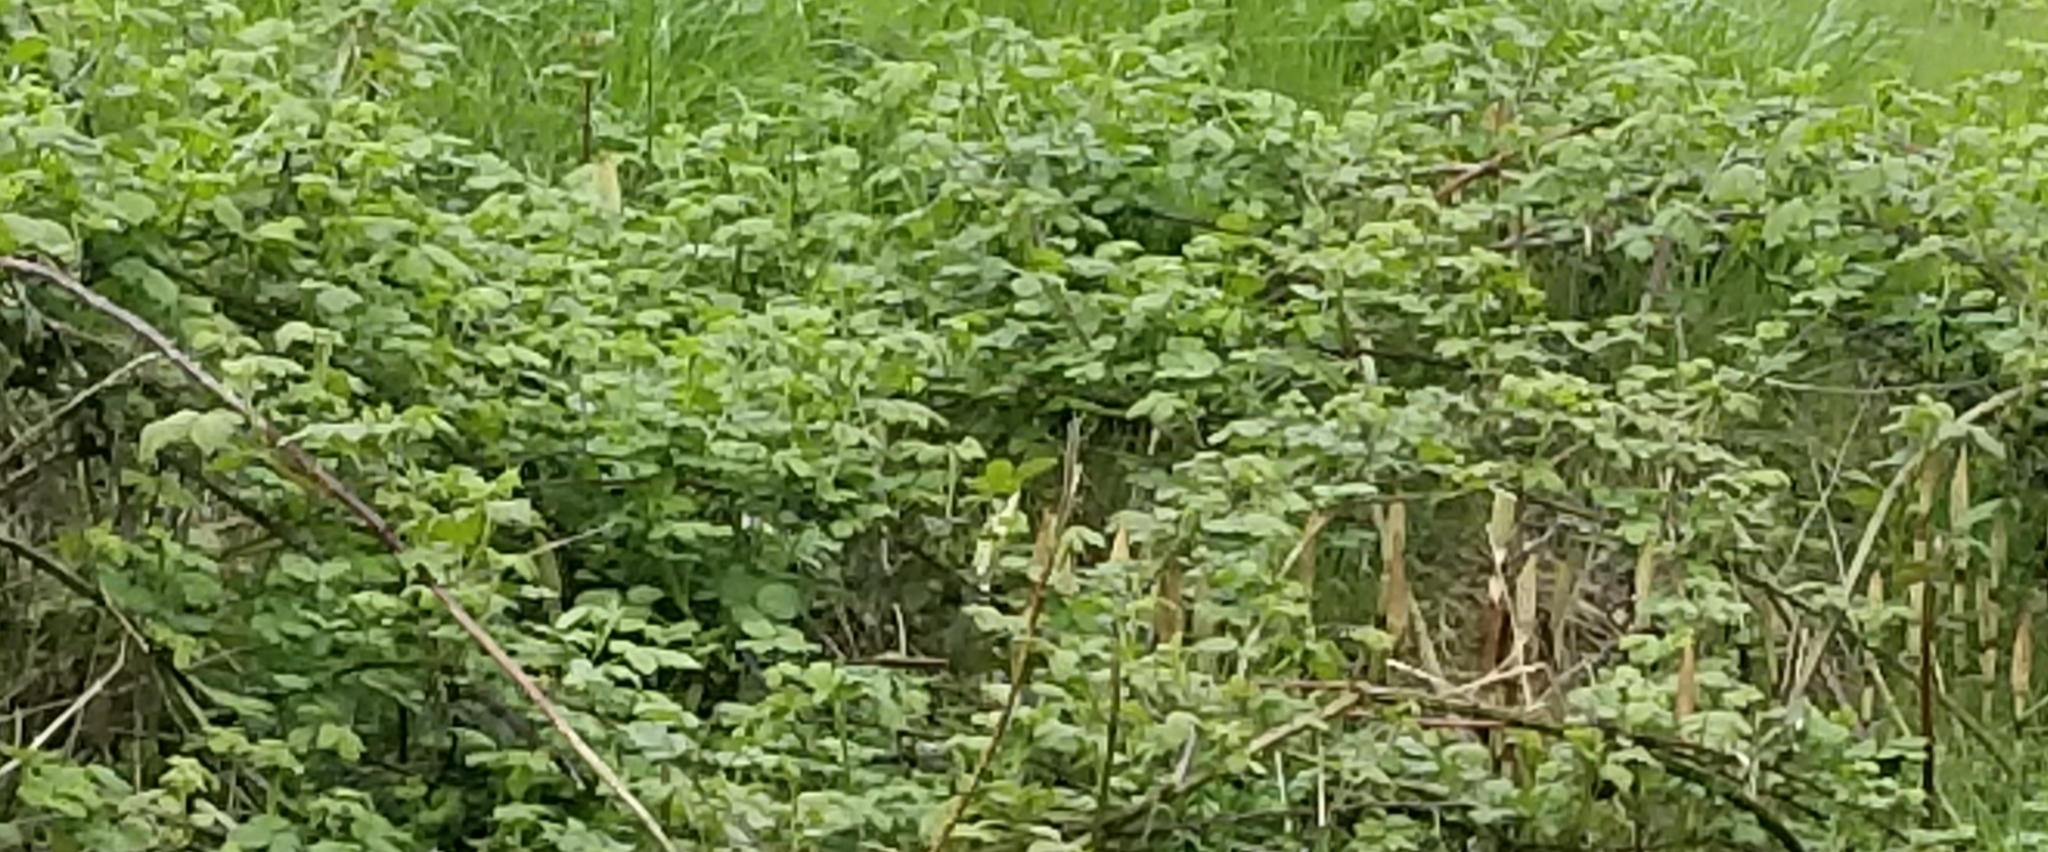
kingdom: Plantae
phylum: Tracheophyta
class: Magnoliopsida
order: Rosales
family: Rosaceae
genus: Rubus
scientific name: Rubus armeniacus
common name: Himalayan blackberry
